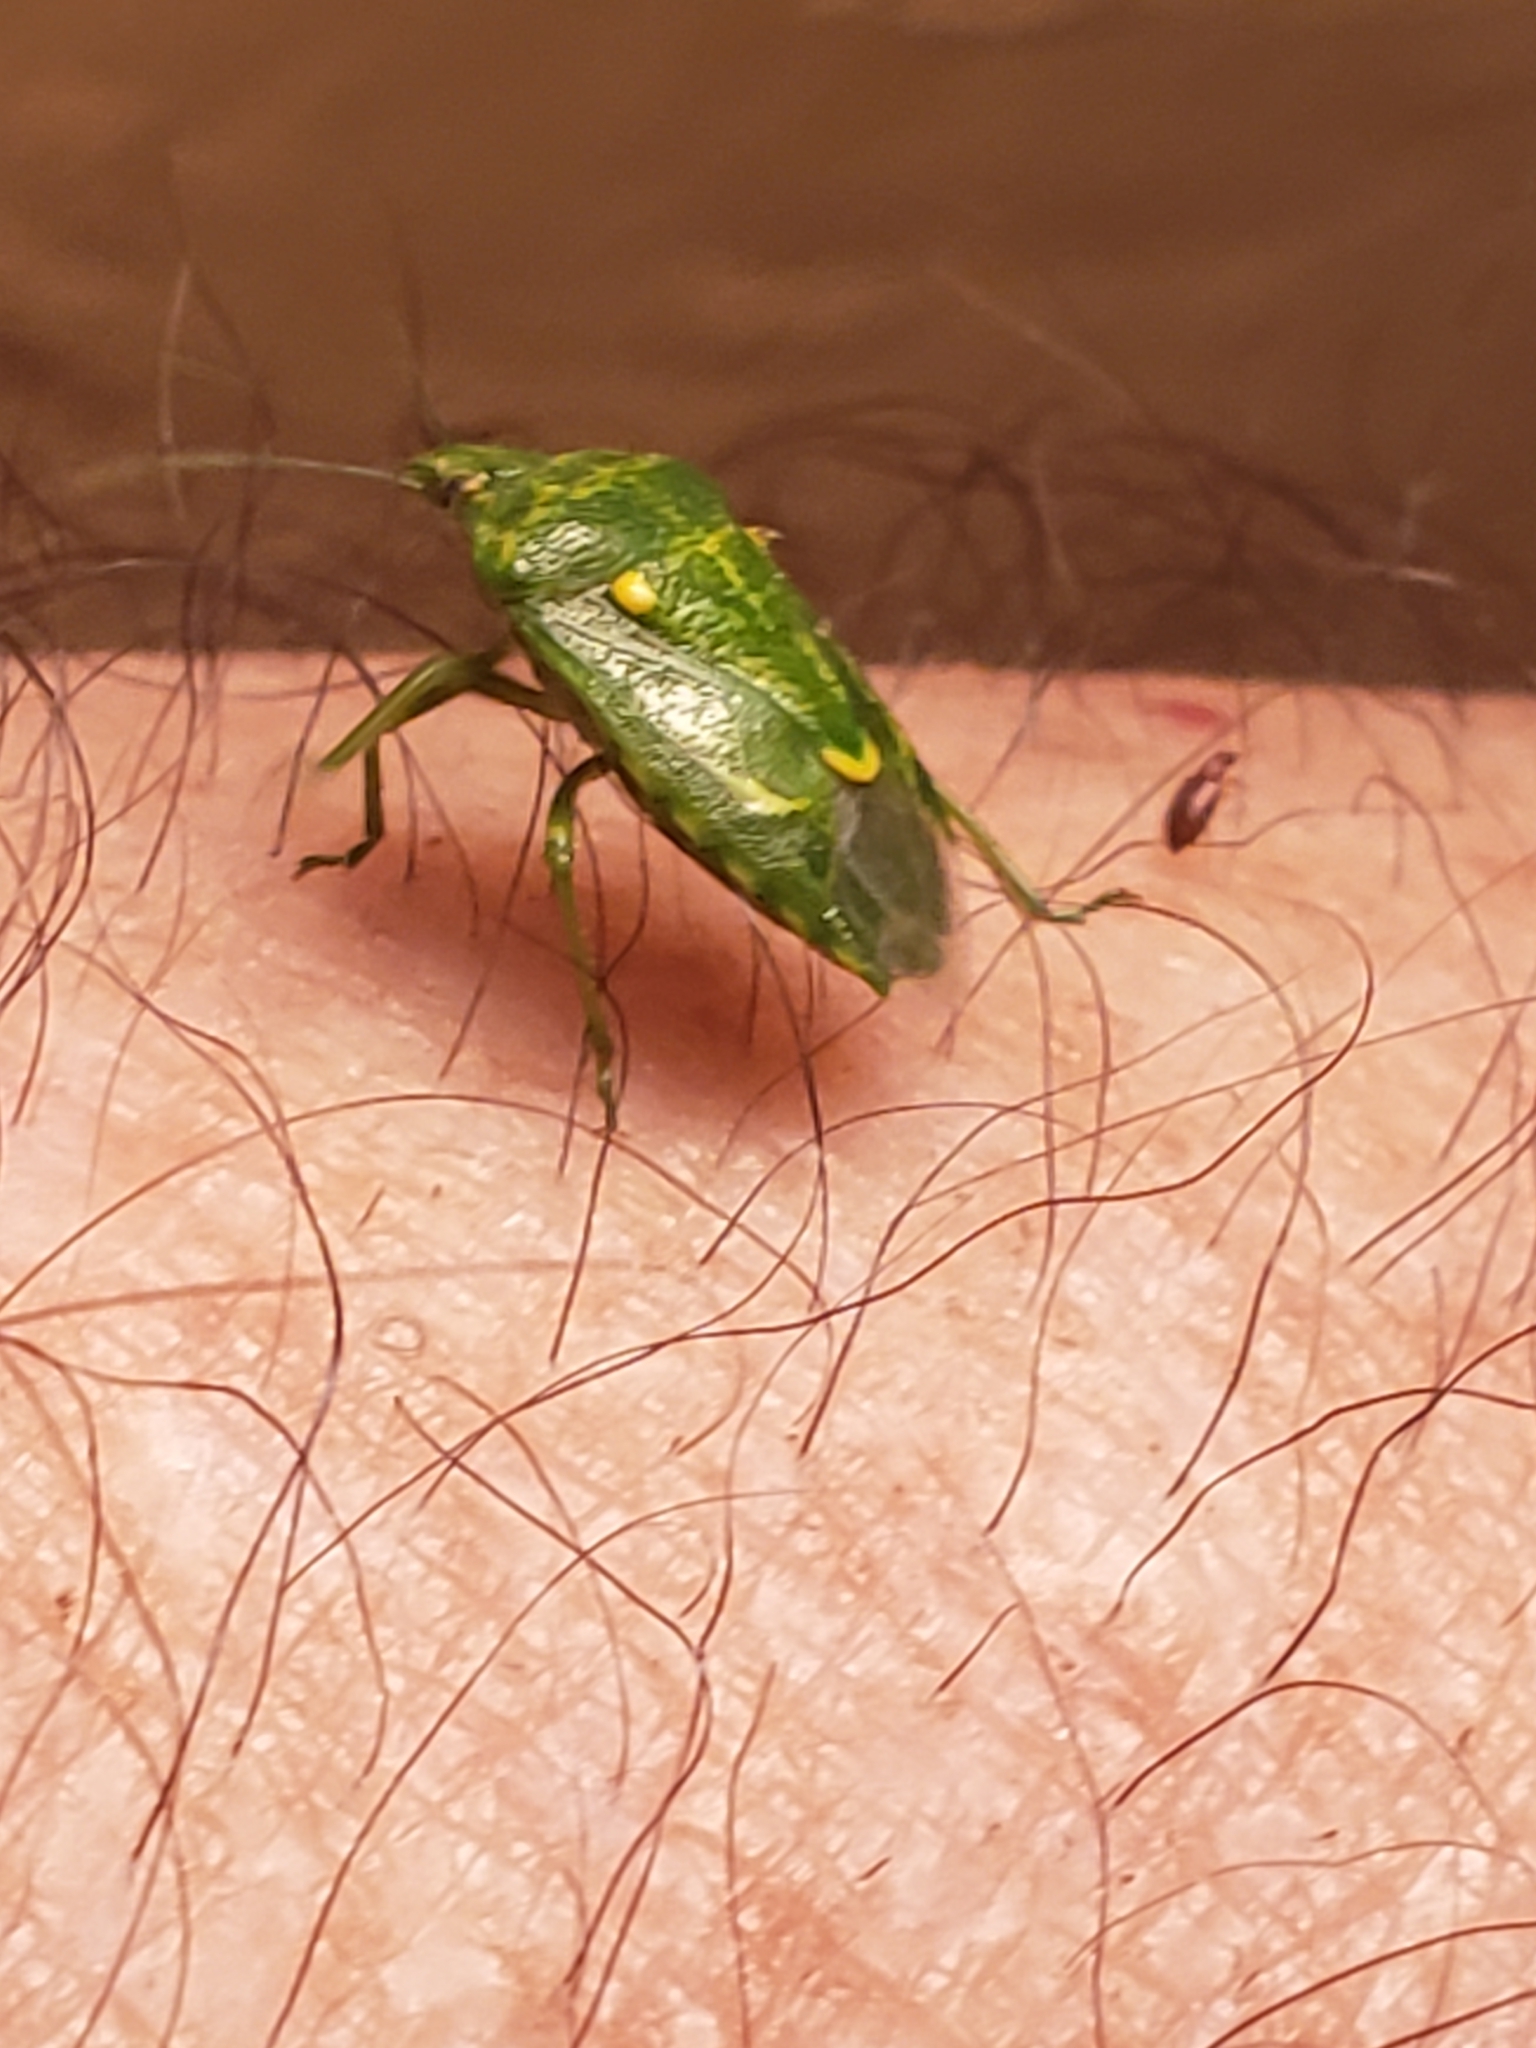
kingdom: Animalia
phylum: Arthropoda
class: Insecta
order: Hemiptera
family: Pentatomidae
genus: Banasa
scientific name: Banasa euchlora
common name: Cedar berry bug
